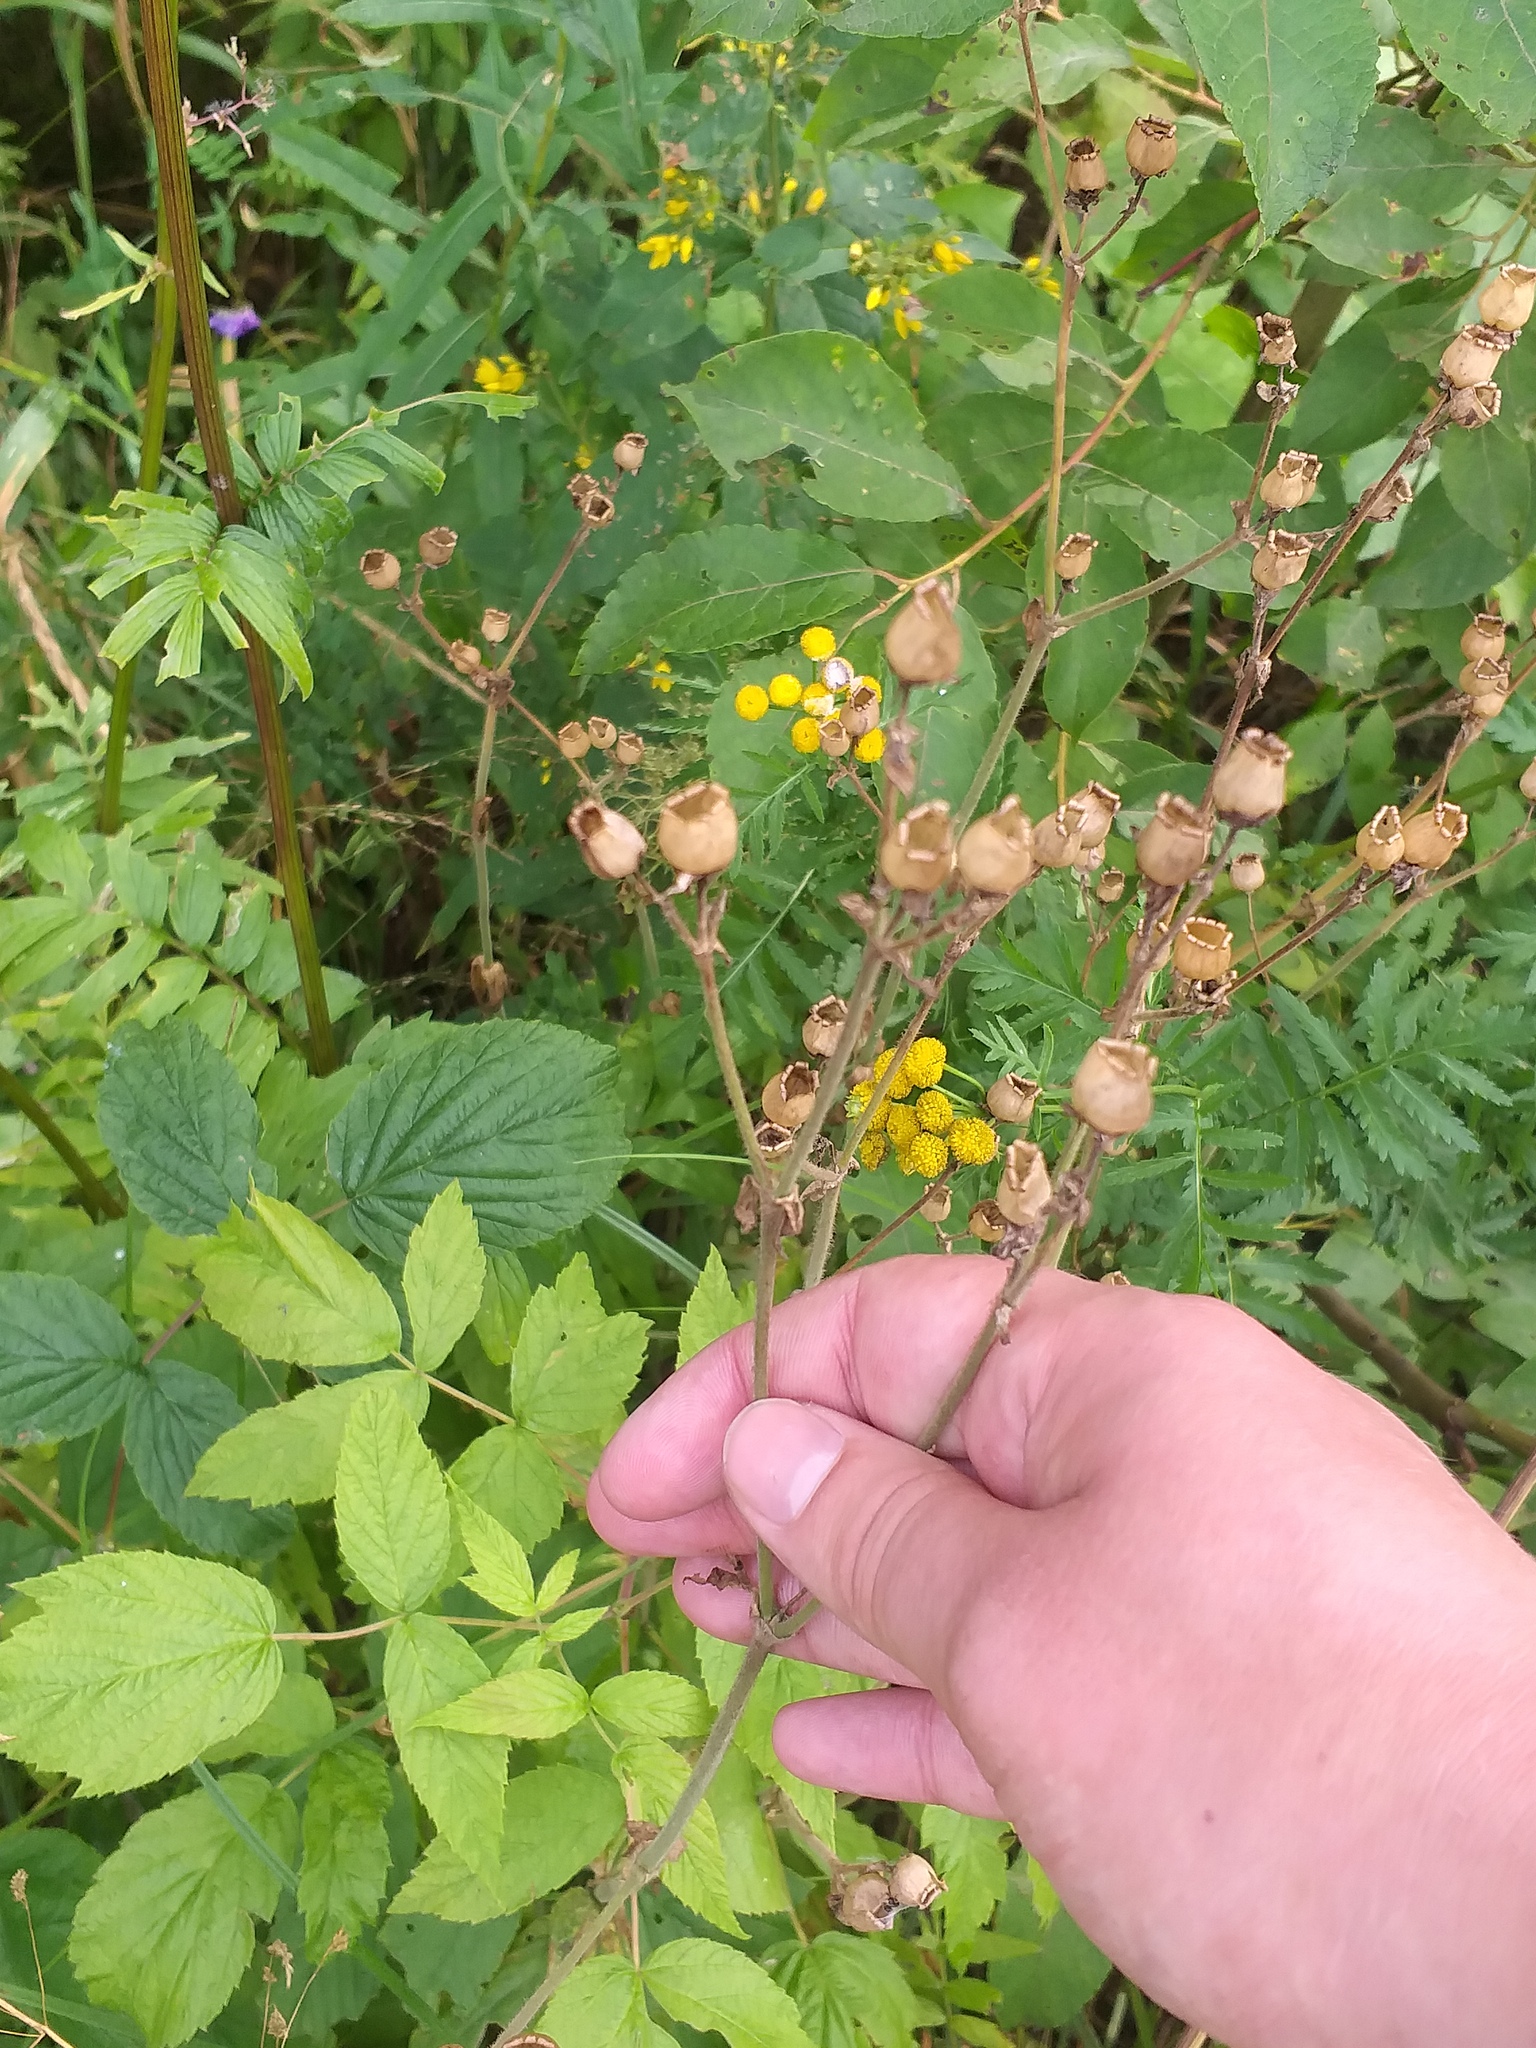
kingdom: Plantae
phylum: Tracheophyta
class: Magnoliopsida
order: Caryophyllales
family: Caryophyllaceae
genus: Silene
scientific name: Silene dioica
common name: Red campion
